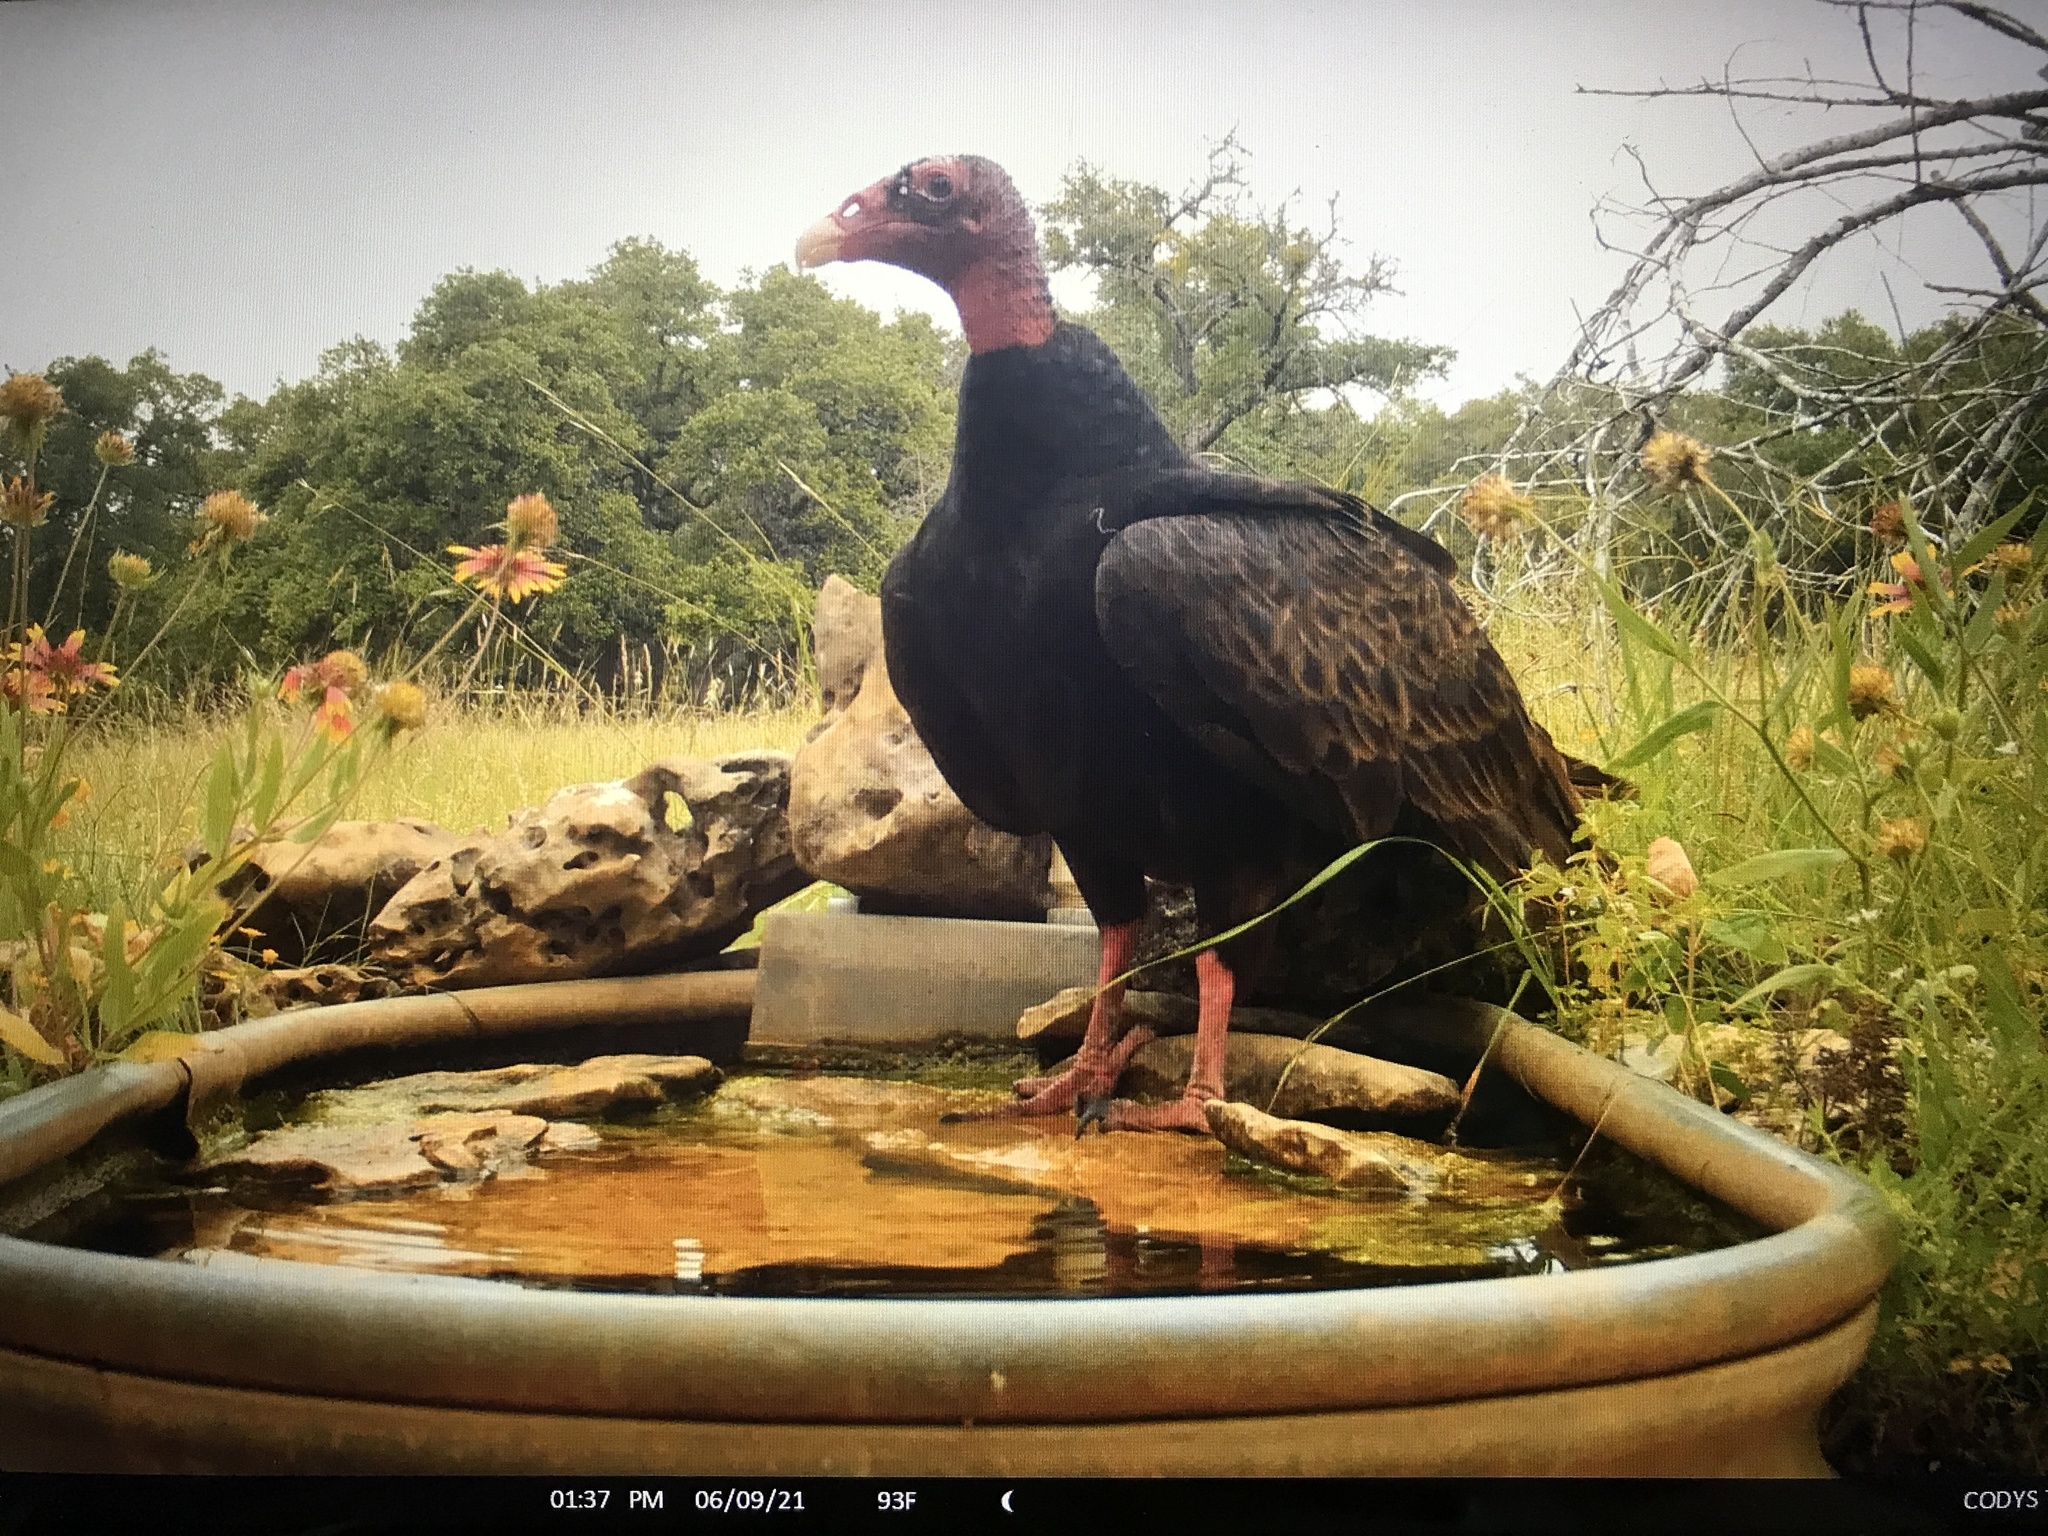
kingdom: Animalia
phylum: Chordata
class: Aves
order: Accipitriformes
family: Cathartidae
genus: Cathartes
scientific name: Cathartes aura
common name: Turkey vulture
